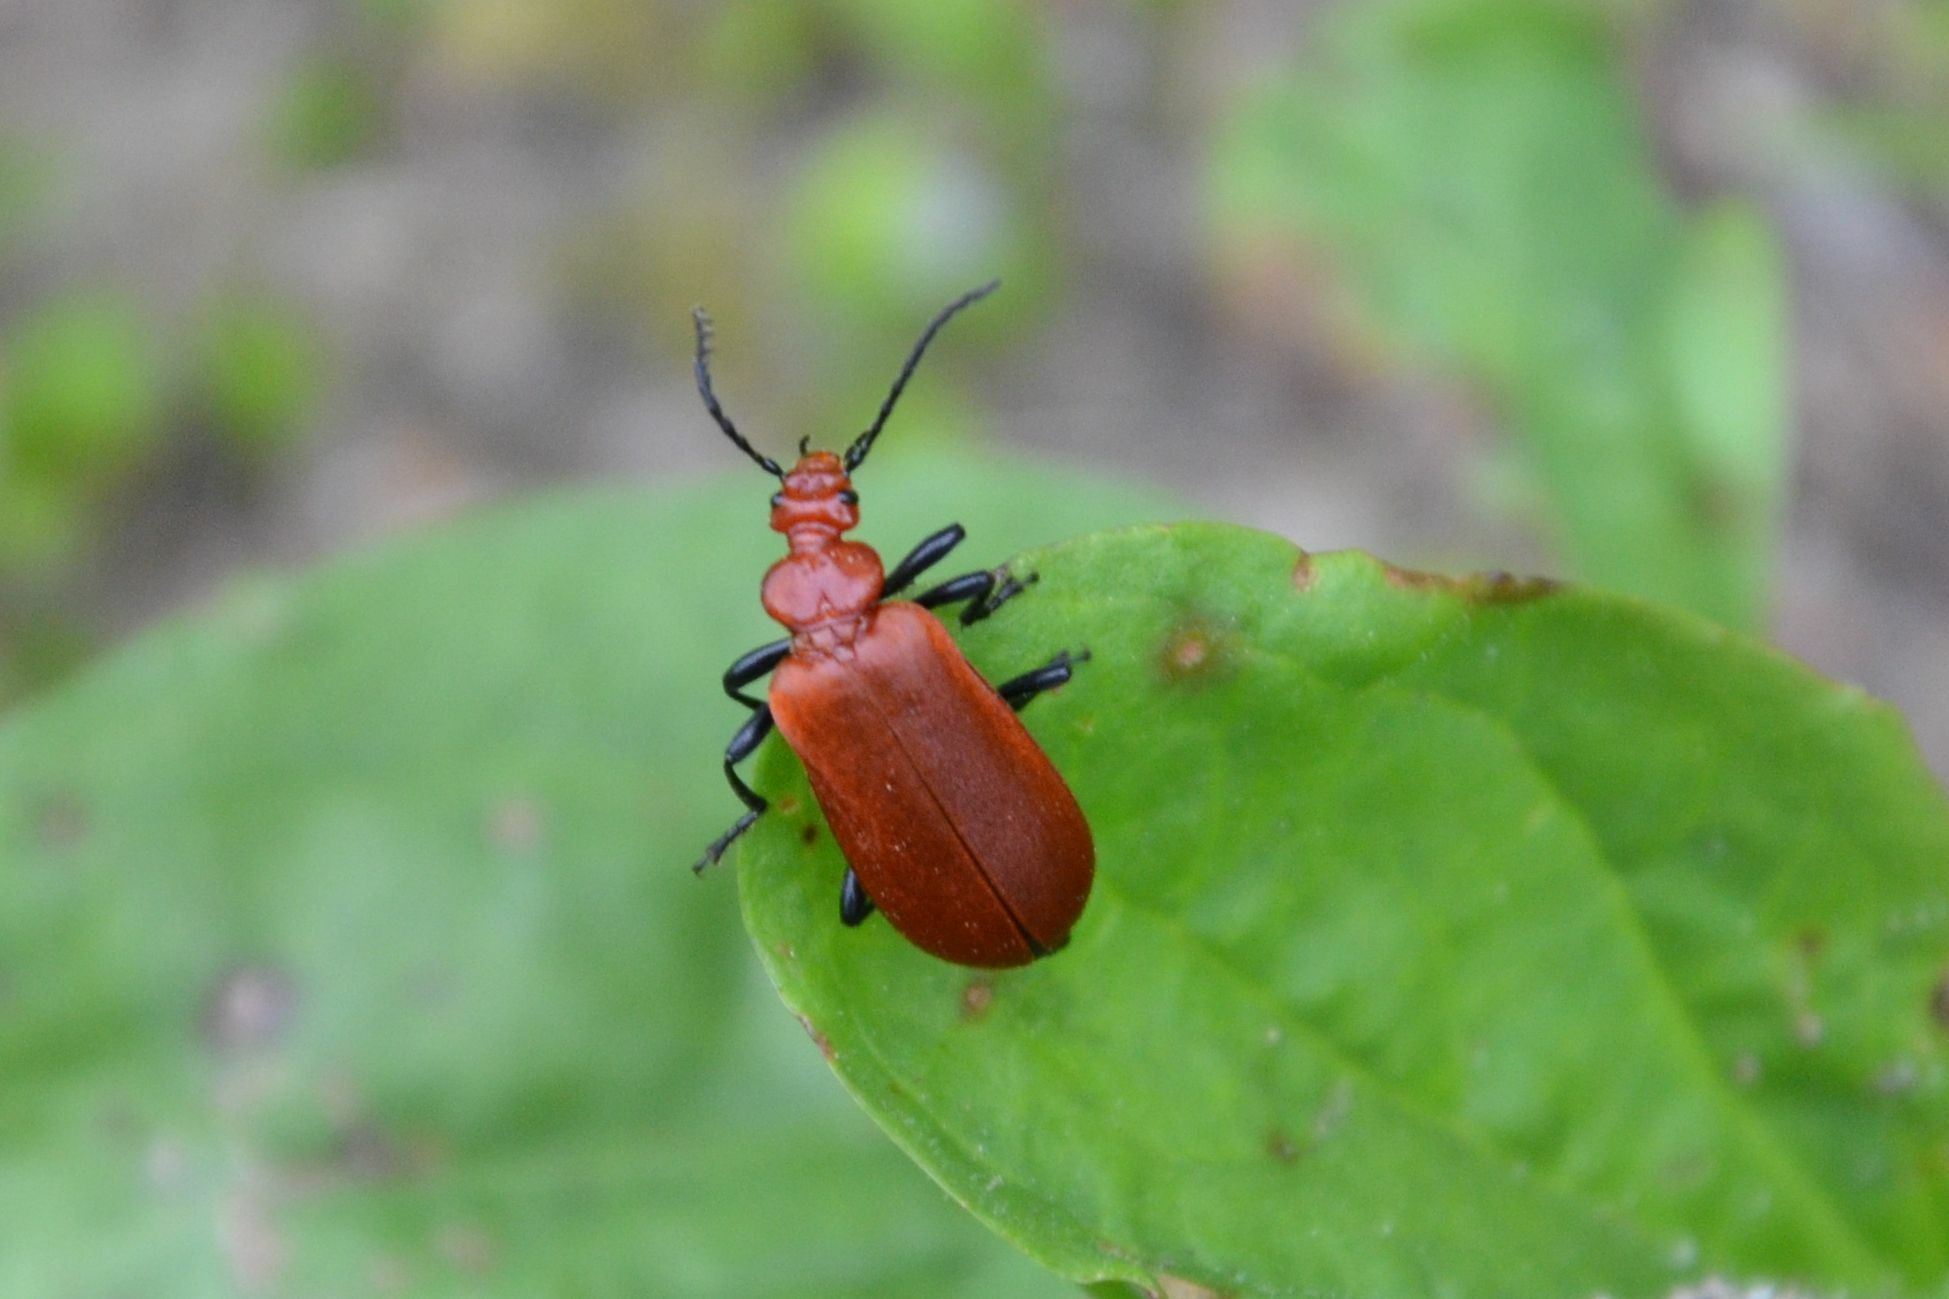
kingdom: Animalia
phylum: Arthropoda
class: Insecta
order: Coleoptera
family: Pyrochroidae
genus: Pyrochroa
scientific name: Pyrochroa serraticornis
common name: Red-headed cardinal beetle
